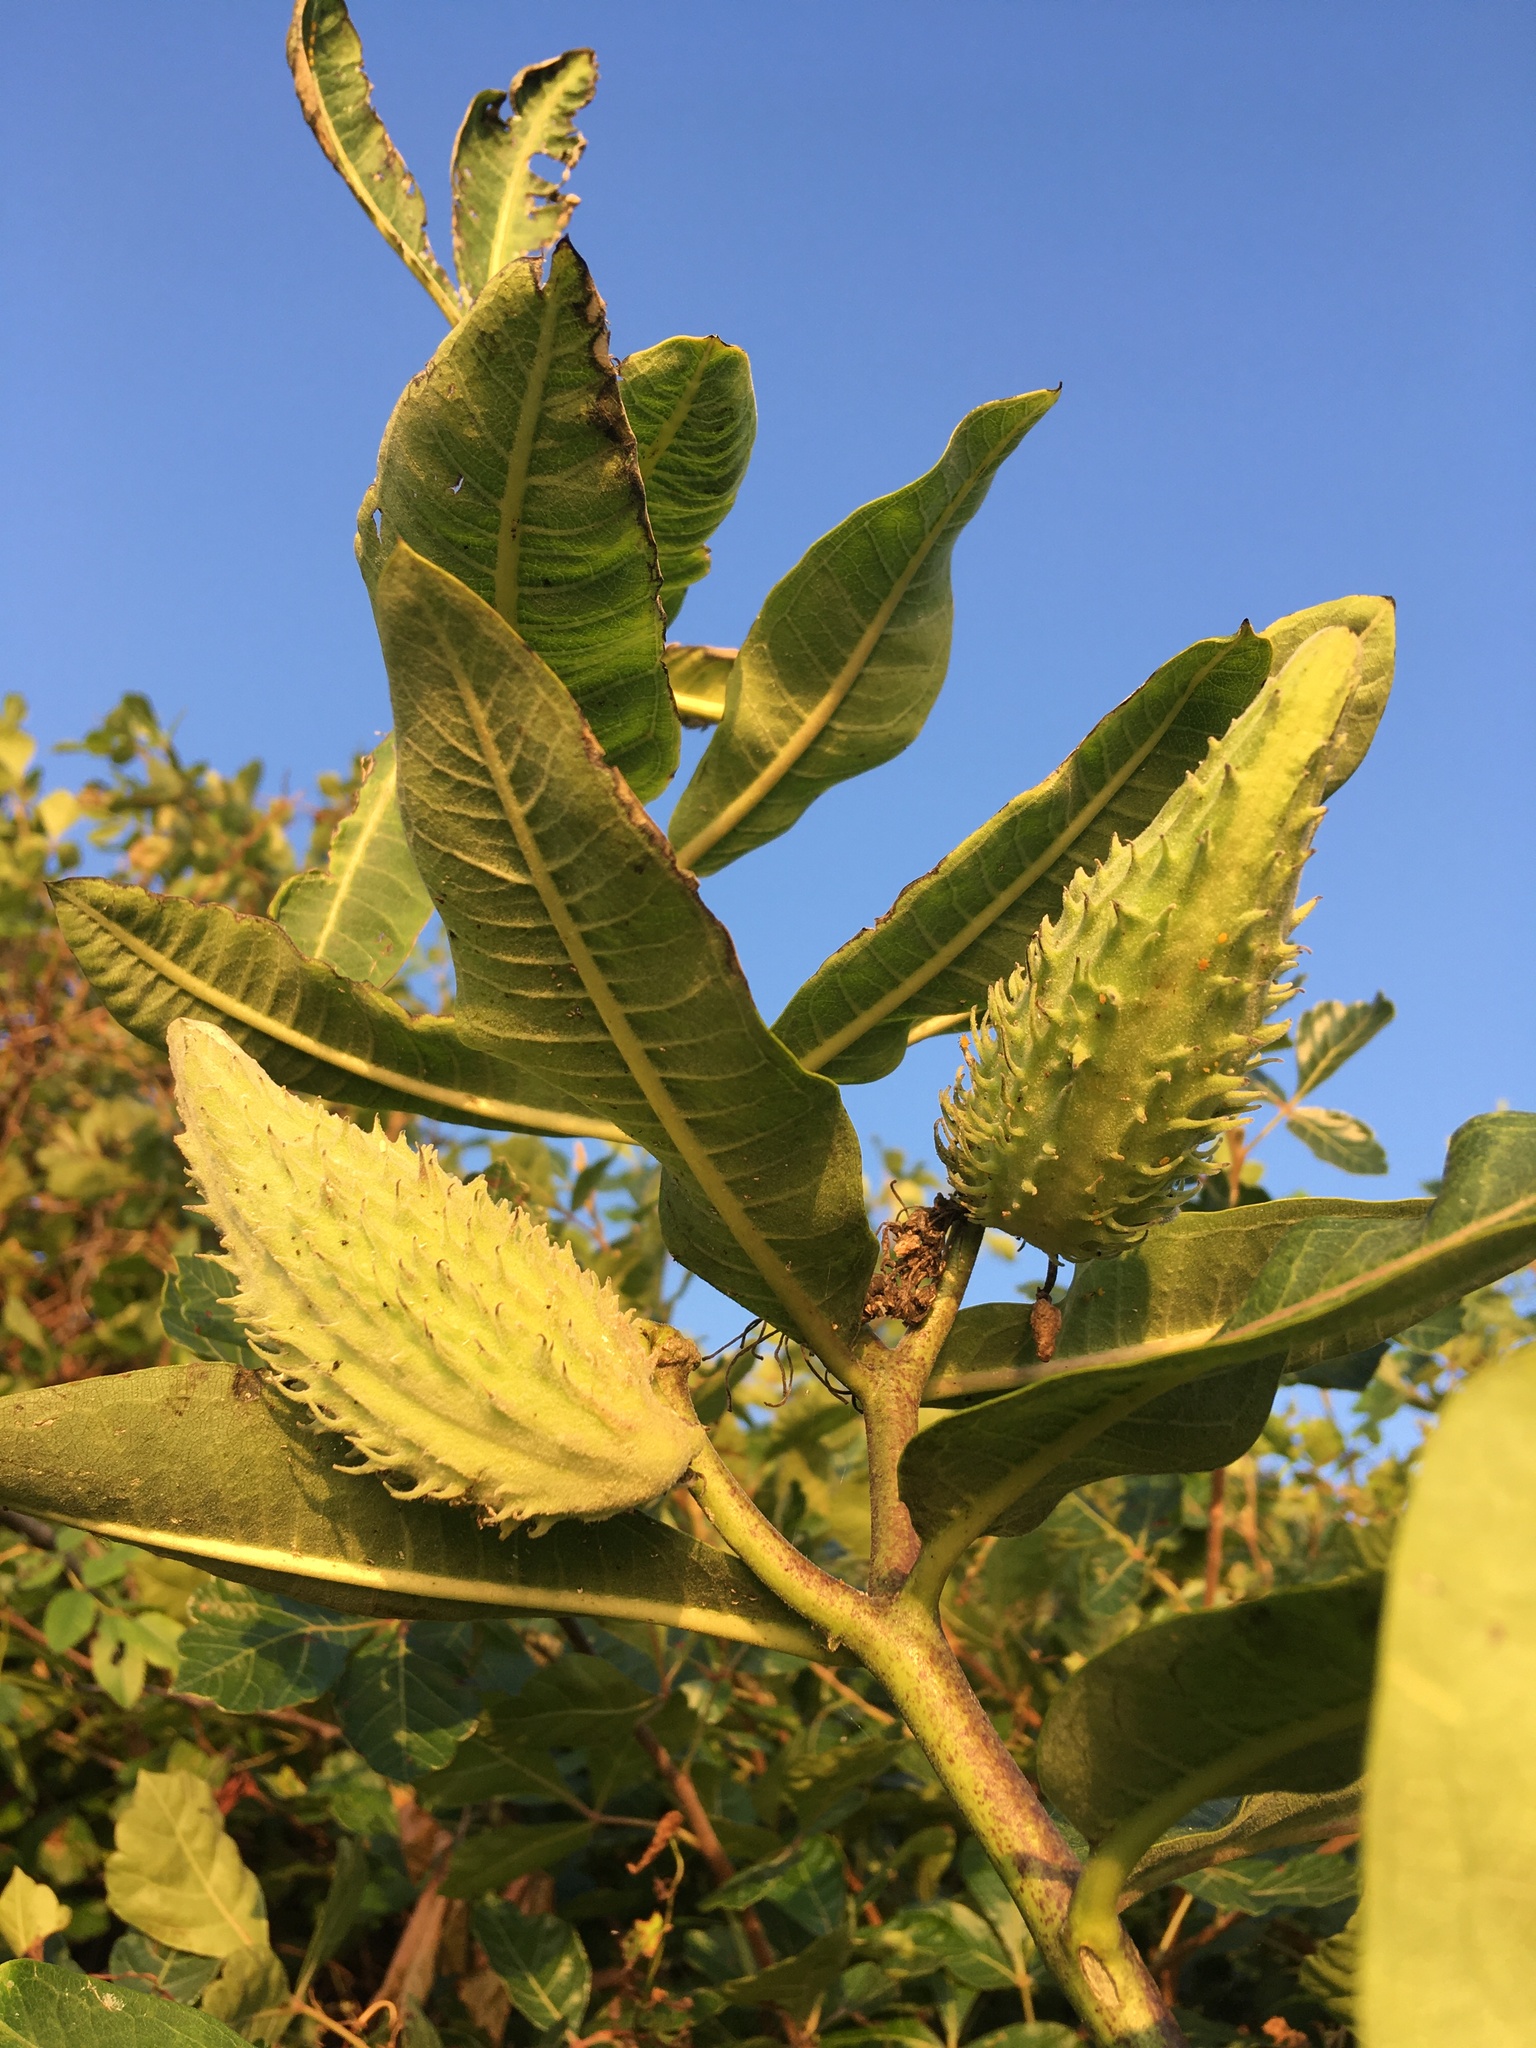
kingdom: Plantae
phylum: Tracheophyta
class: Magnoliopsida
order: Gentianales
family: Apocynaceae
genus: Asclepias
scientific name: Asclepias syriaca
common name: Common milkweed
